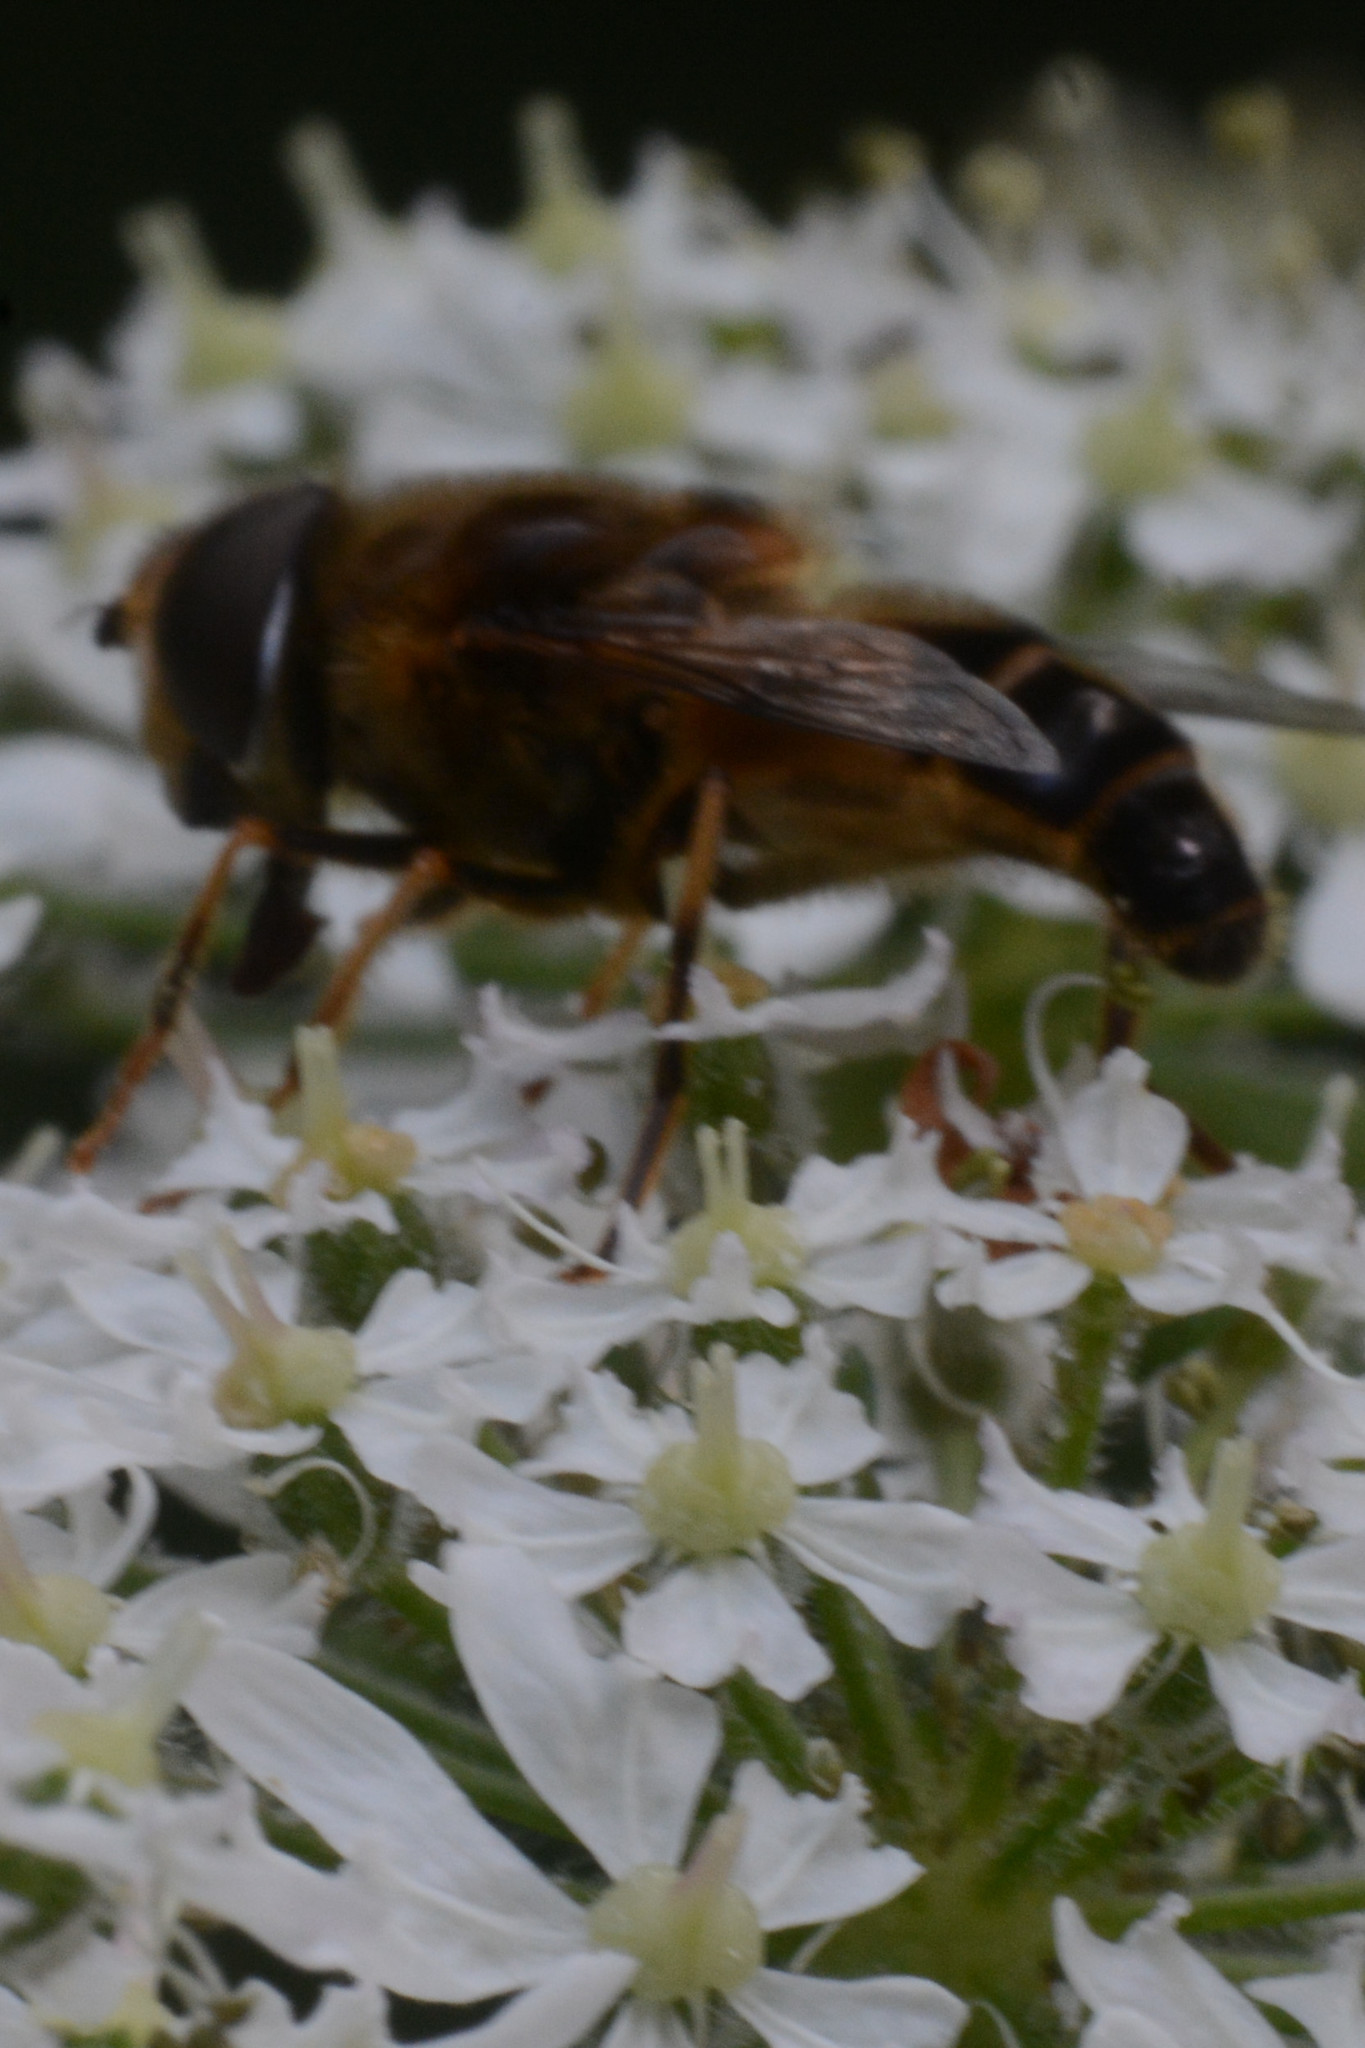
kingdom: Animalia
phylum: Arthropoda
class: Insecta
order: Diptera
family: Syrphidae
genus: Eristalis
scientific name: Eristalis pertinax
